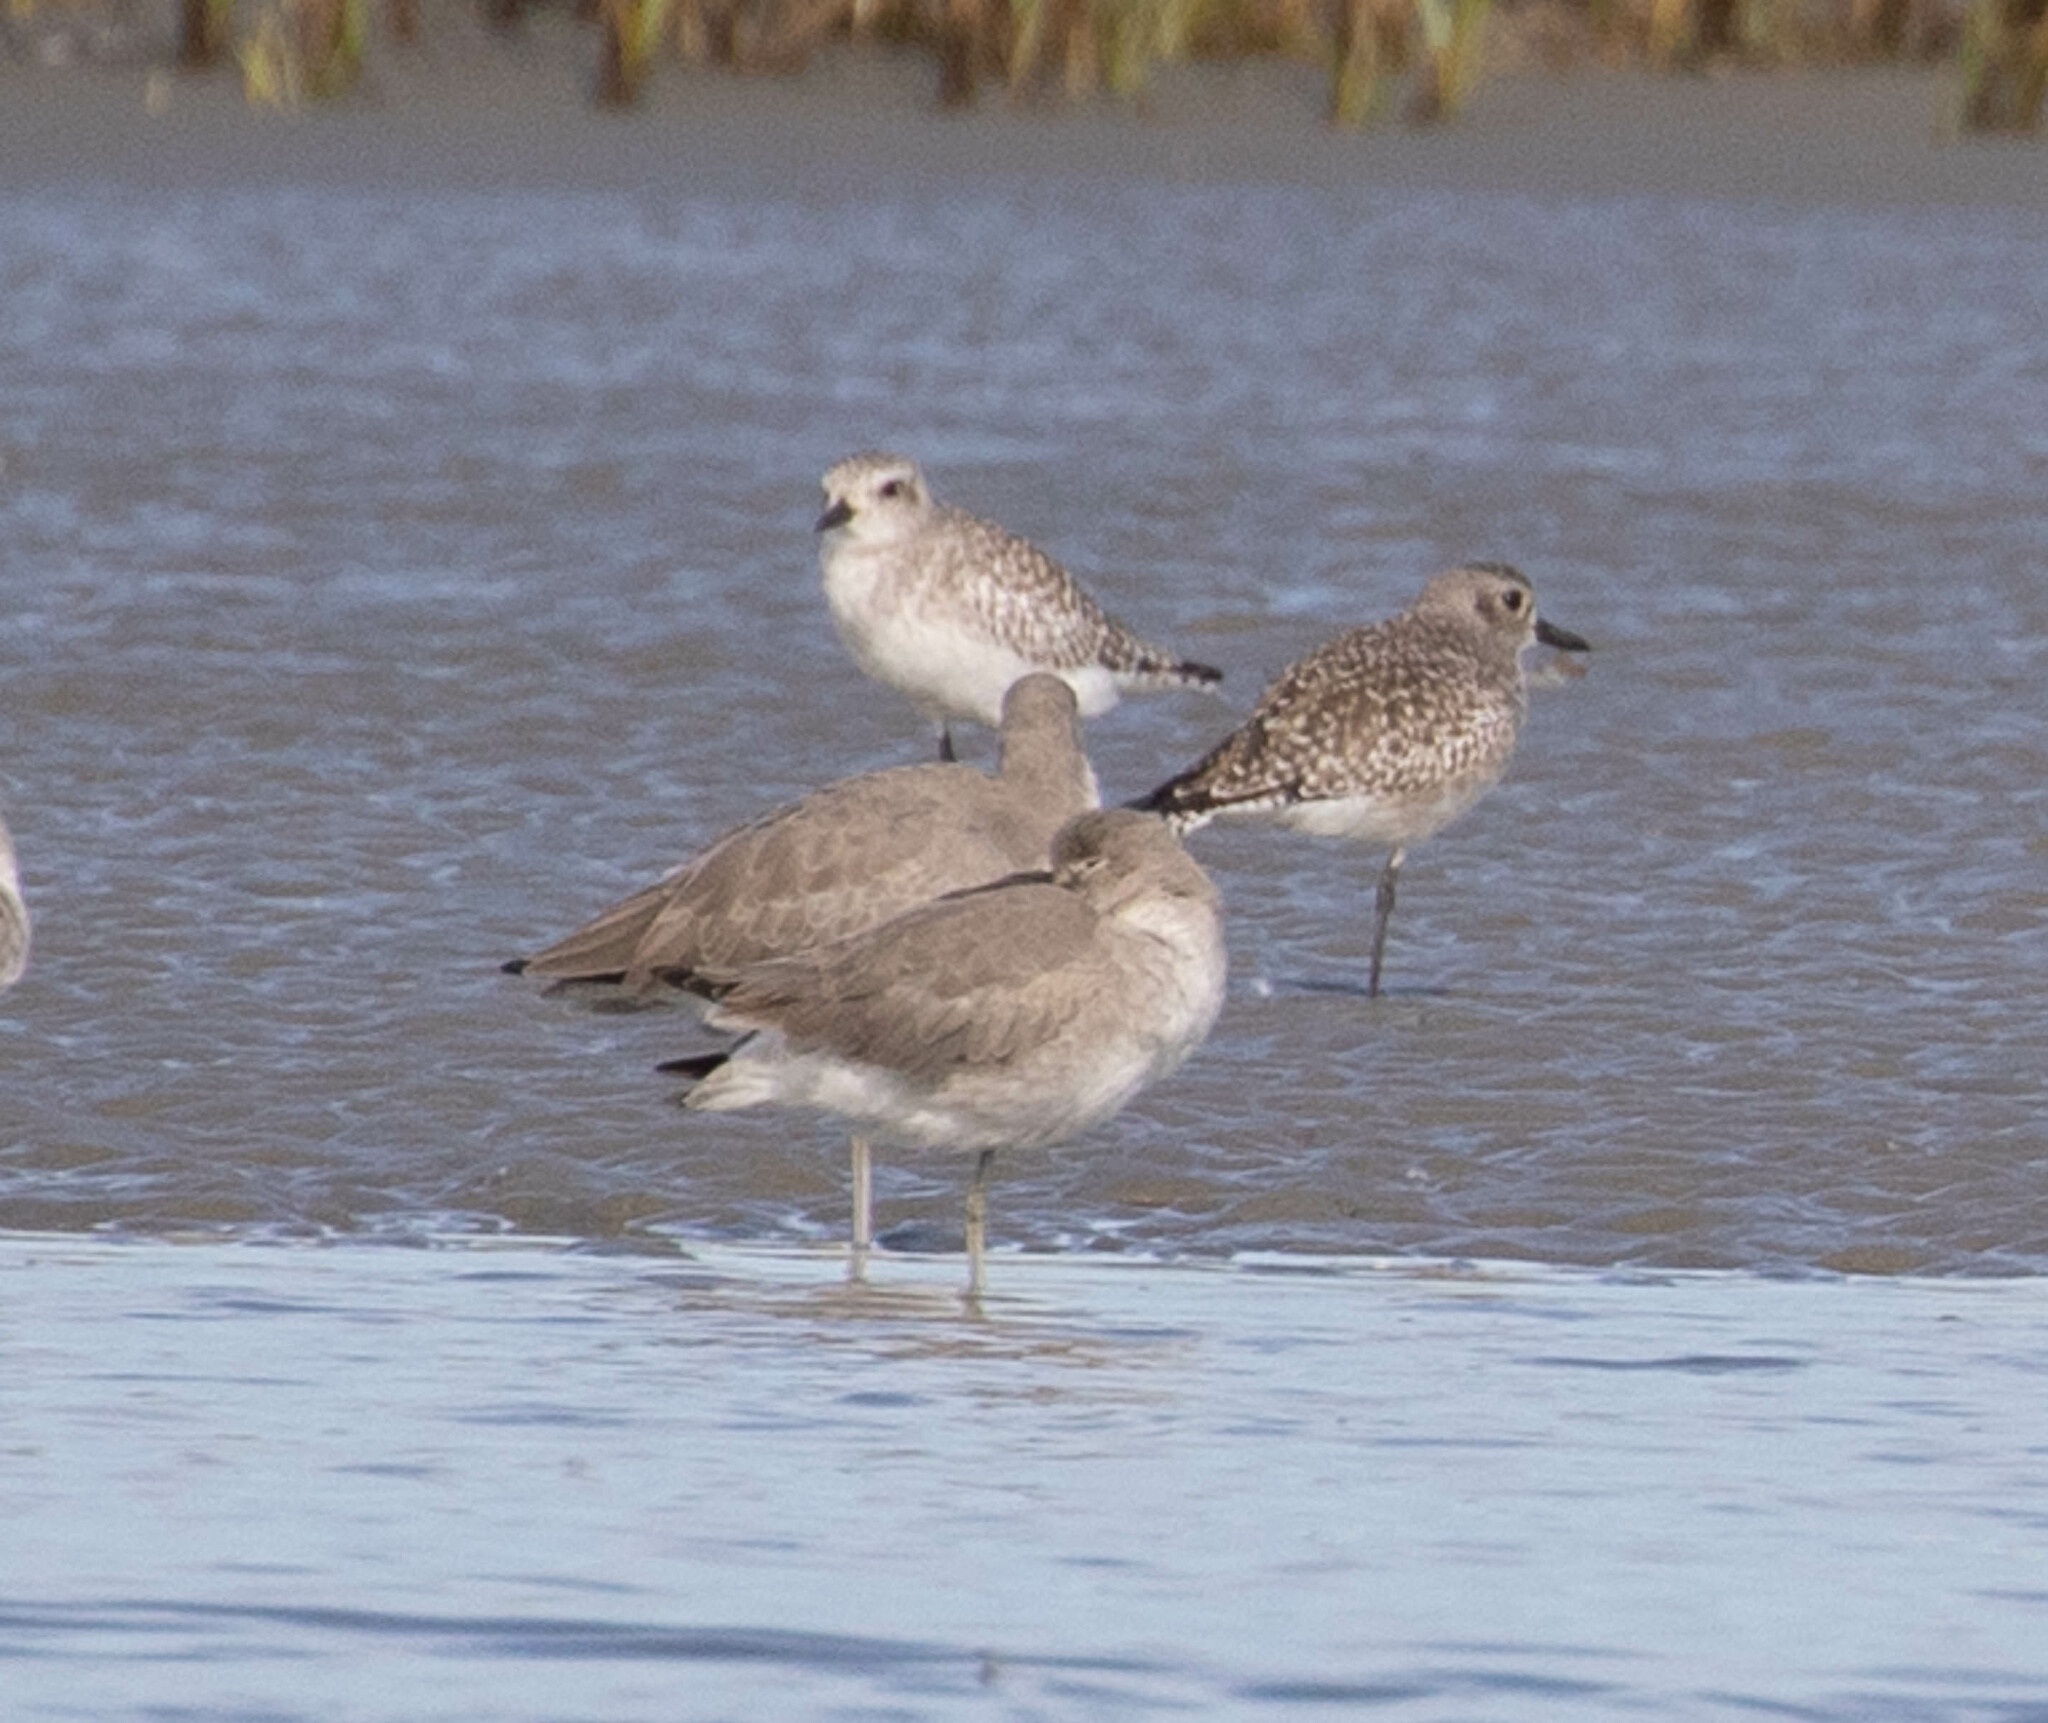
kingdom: Animalia
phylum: Chordata
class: Aves
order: Charadriiformes
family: Charadriidae
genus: Pluvialis
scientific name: Pluvialis squatarola
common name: Grey plover
